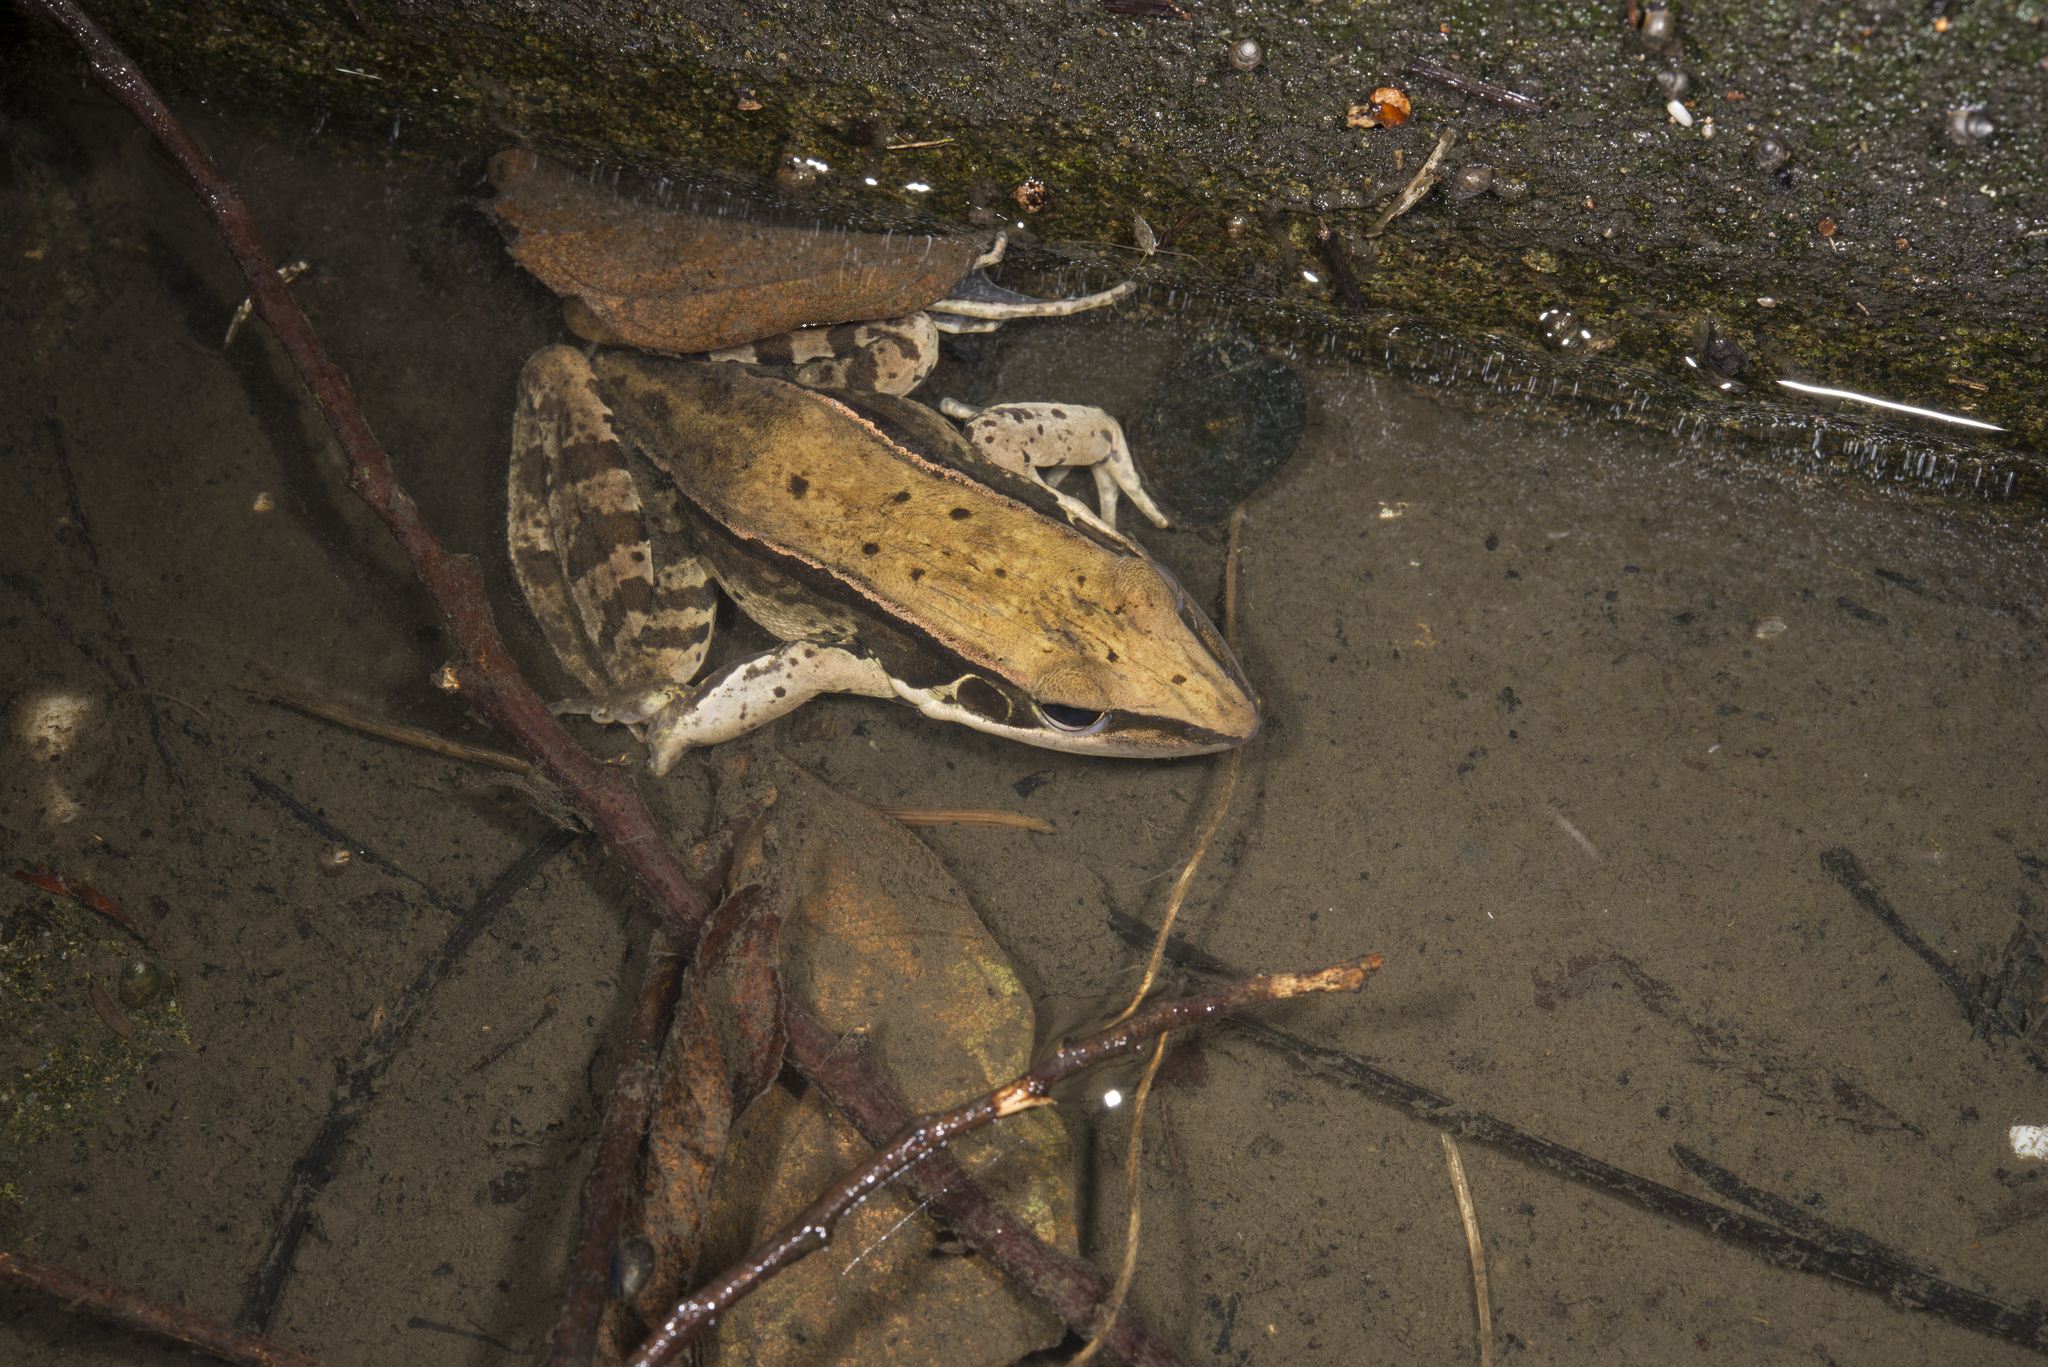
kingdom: Animalia
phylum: Chordata
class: Amphibia
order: Anura
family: Ranidae
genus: Sylvirana
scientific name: Sylvirana guentheri
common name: Guenther's amoy frog
